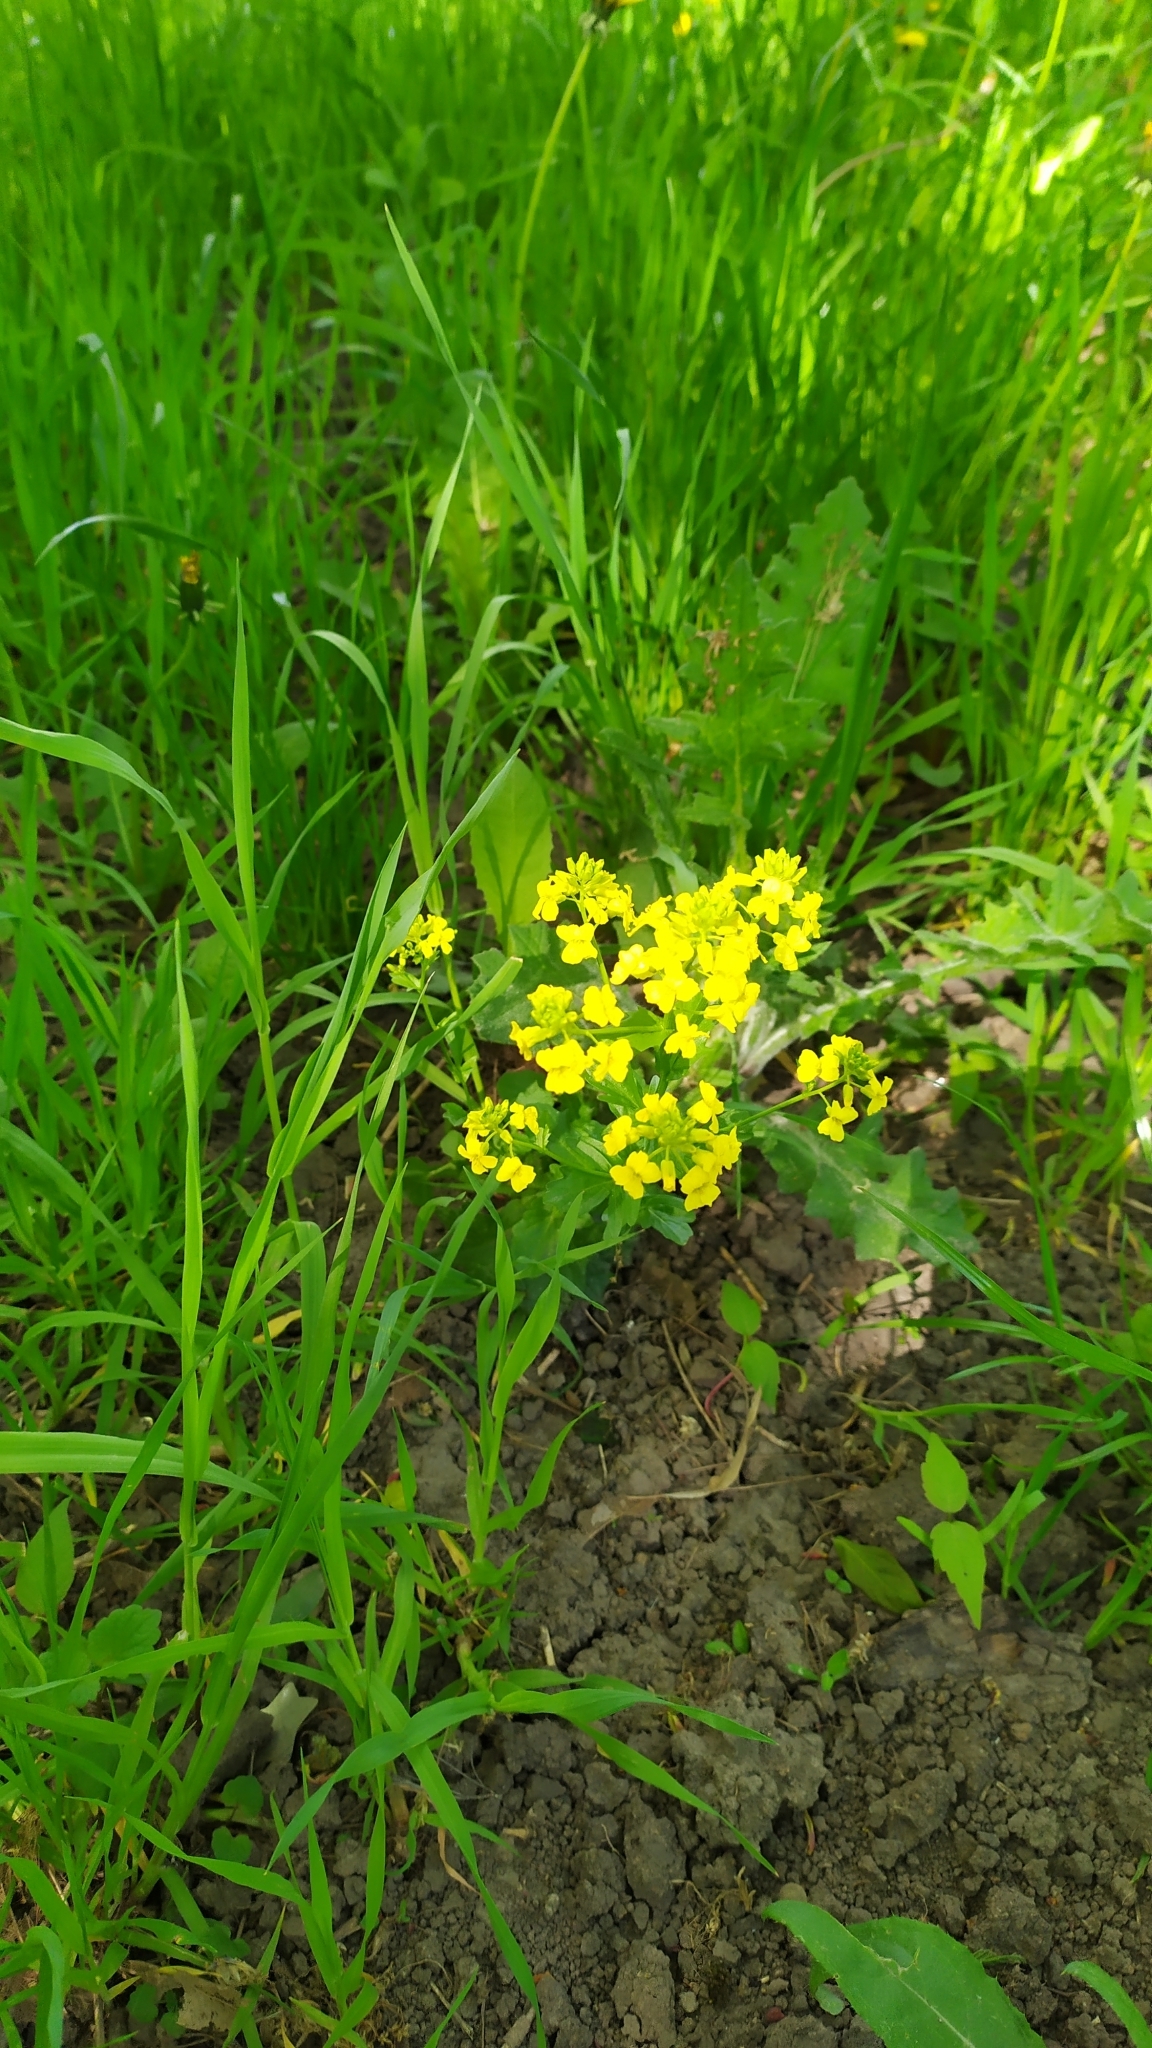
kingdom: Plantae
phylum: Tracheophyta
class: Magnoliopsida
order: Brassicales
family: Brassicaceae
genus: Barbarea
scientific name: Barbarea vulgaris
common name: Cressy-greens
